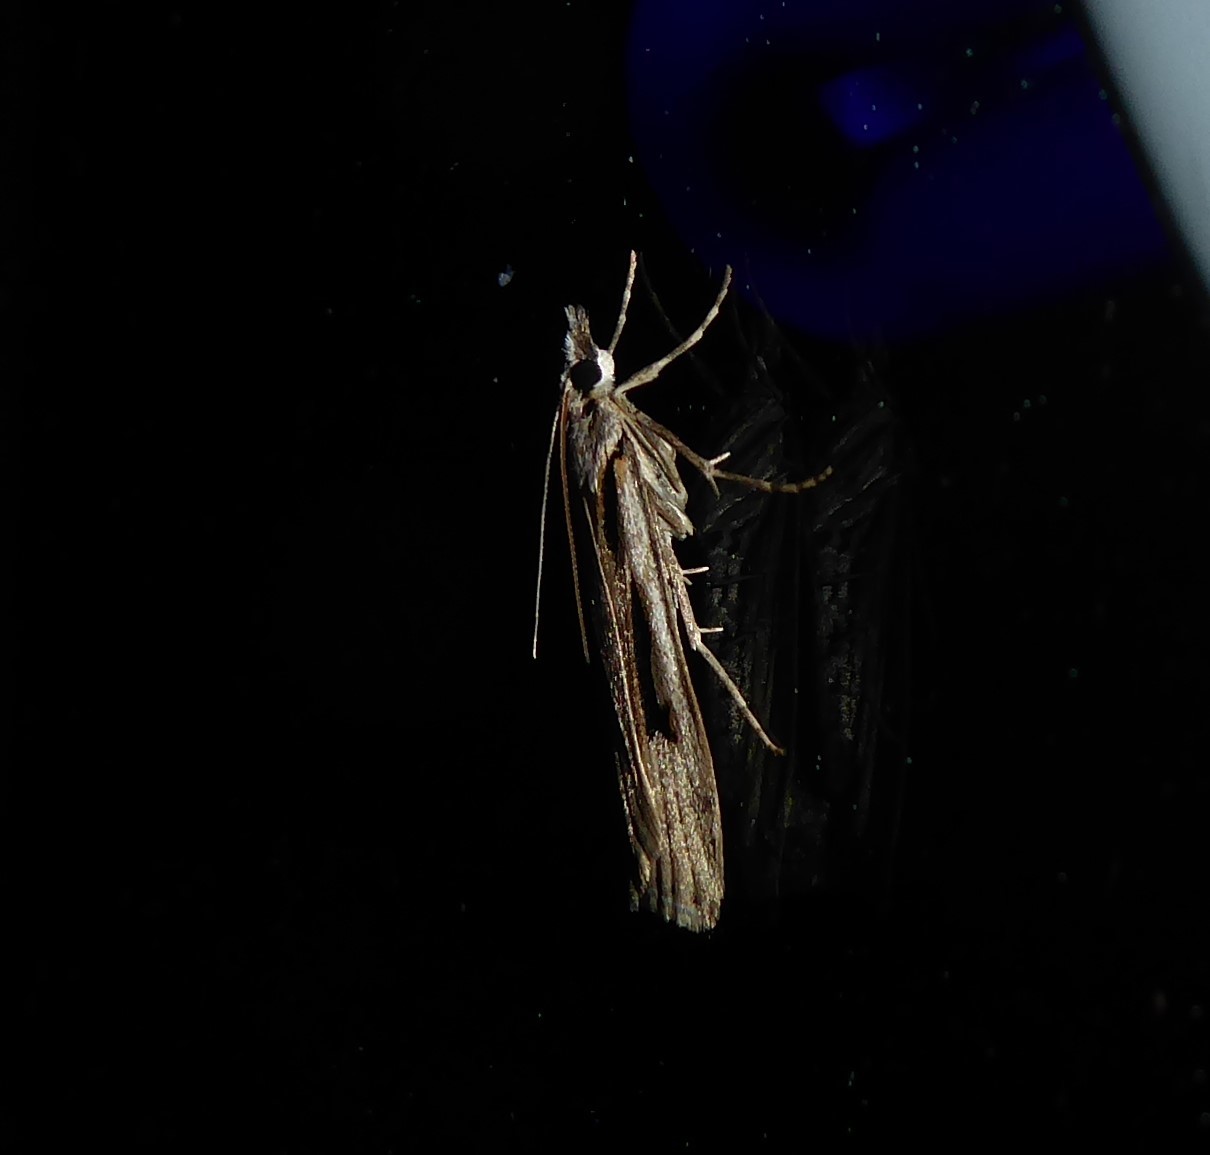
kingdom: Animalia
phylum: Arthropoda
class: Insecta
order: Lepidoptera
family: Crambidae
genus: Scoparia
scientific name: Scoparia rotuellus
